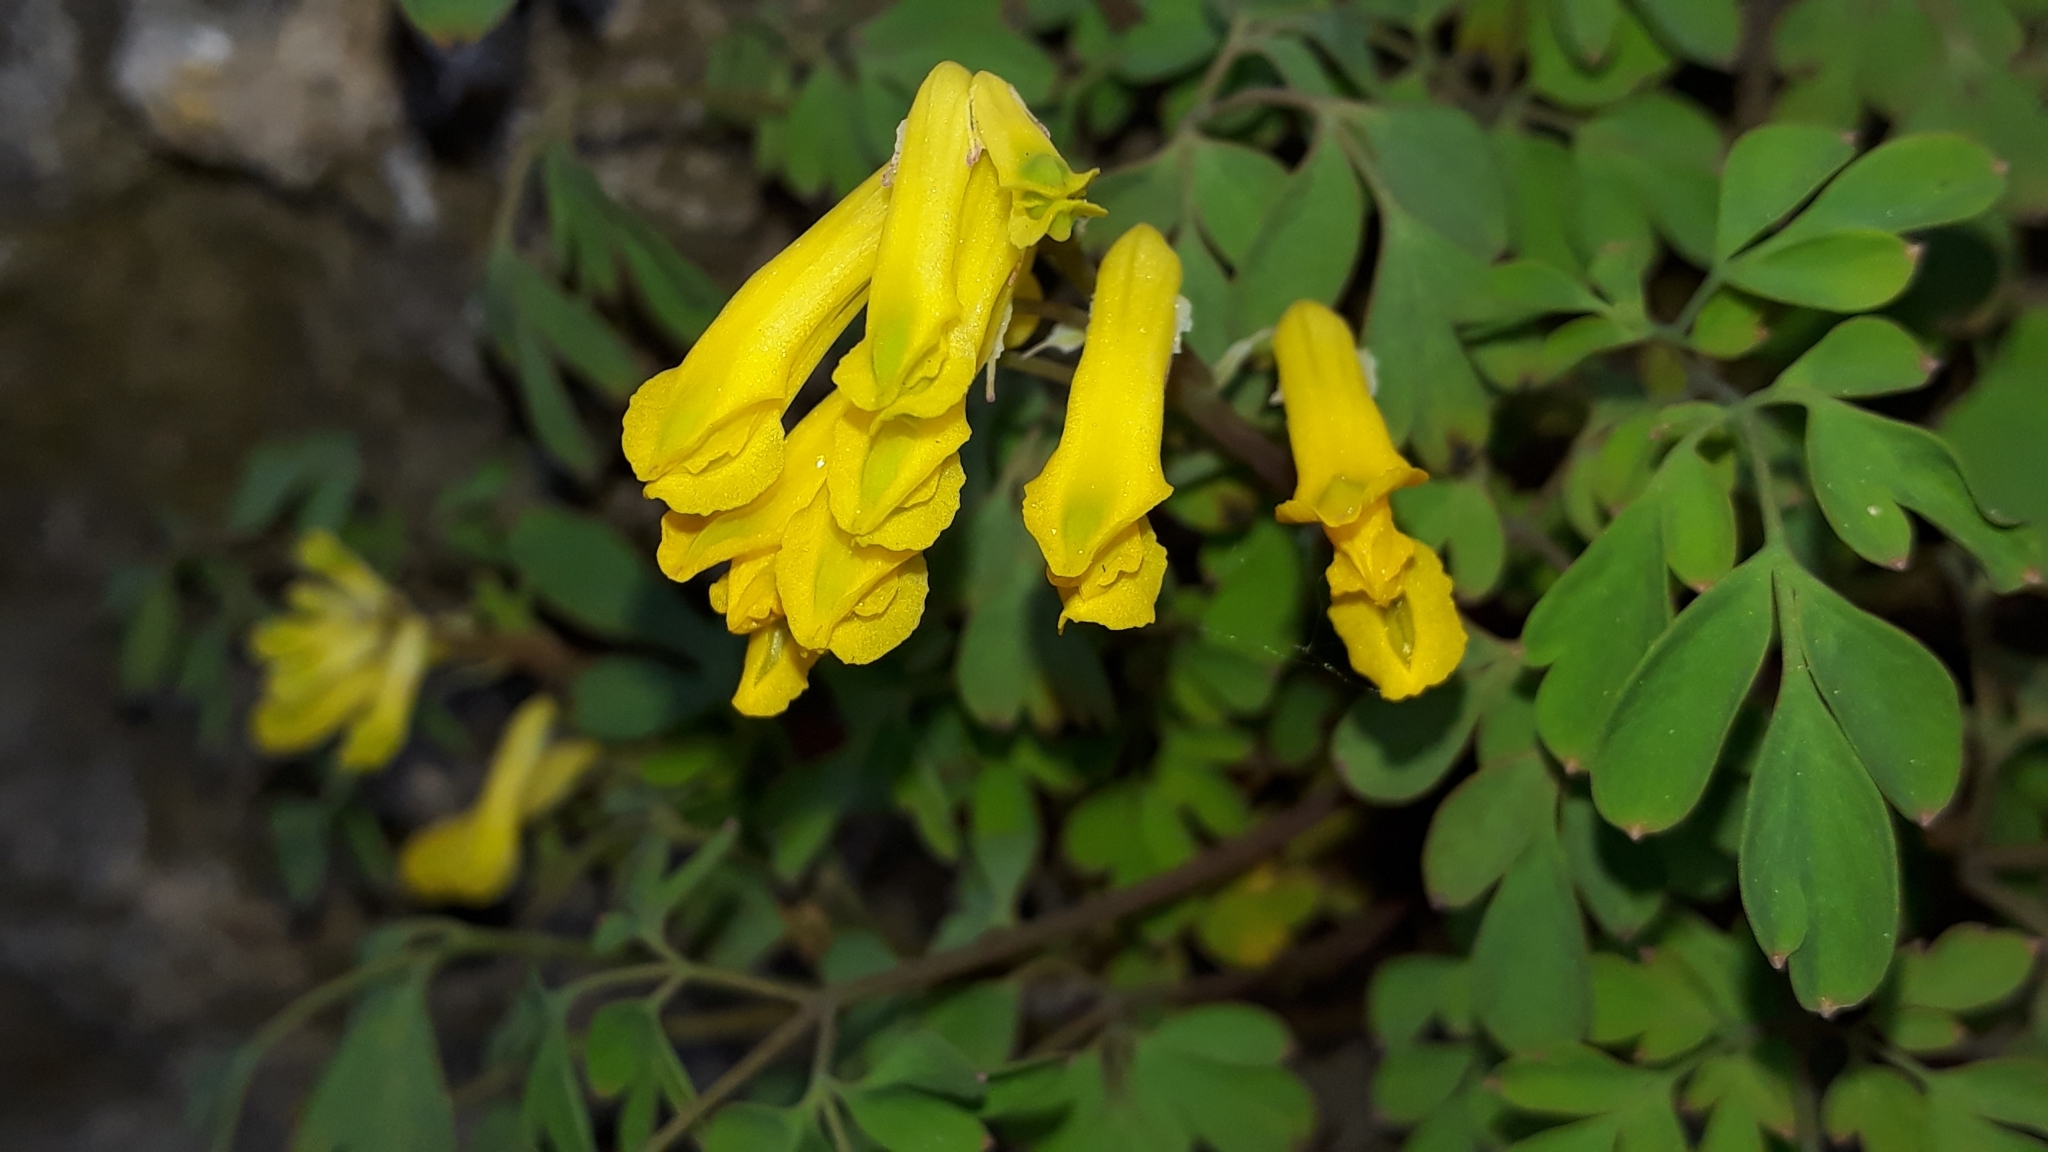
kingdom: Plantae
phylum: Tracheophyta
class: Magnoliopsida
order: Ranunculales
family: Papaveraceae
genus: Pseudofumaria
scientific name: Pseudofumaria lutea
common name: Yellow corydalis
